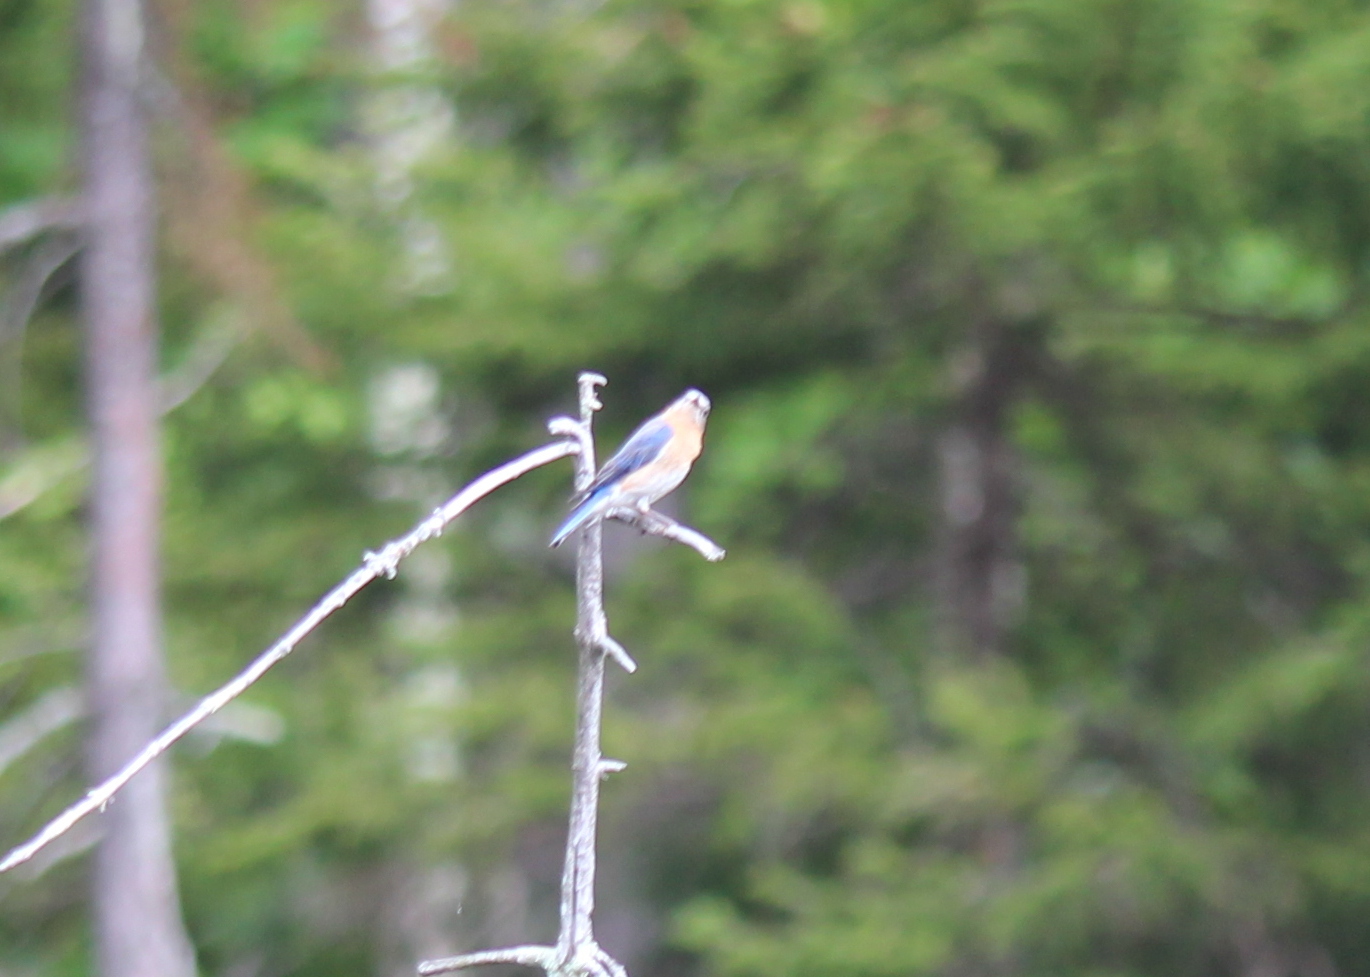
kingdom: Animalia
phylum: Chordata
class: Aves
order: Passeriformes
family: Turdidae
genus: Sialia
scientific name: Sialia sialis
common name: Eastern bluebird
